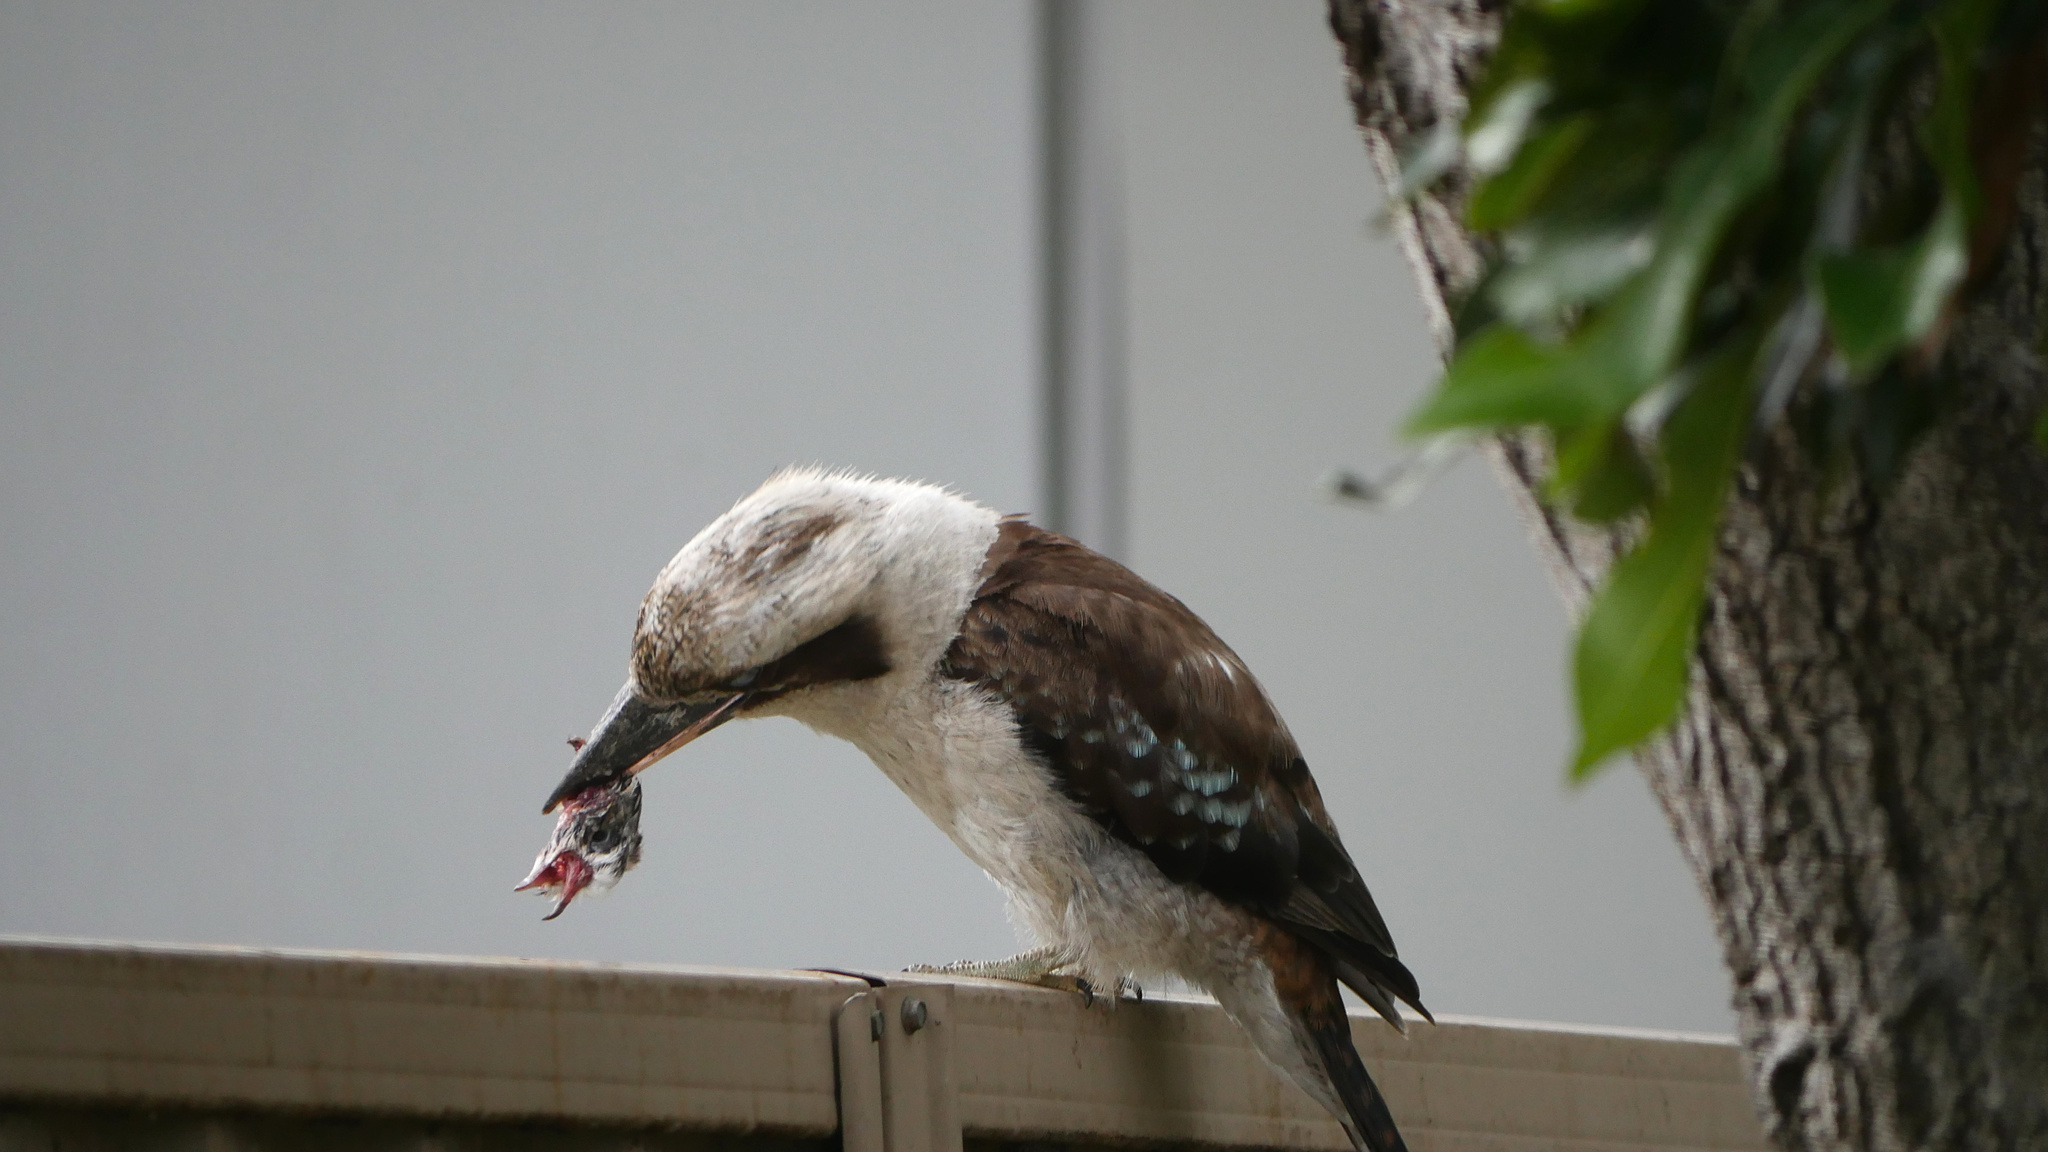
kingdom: Animalia
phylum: Chordata
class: Aves
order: Columbiformes
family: Columbidae
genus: Columba
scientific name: Columba livia
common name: Rock pigeon
